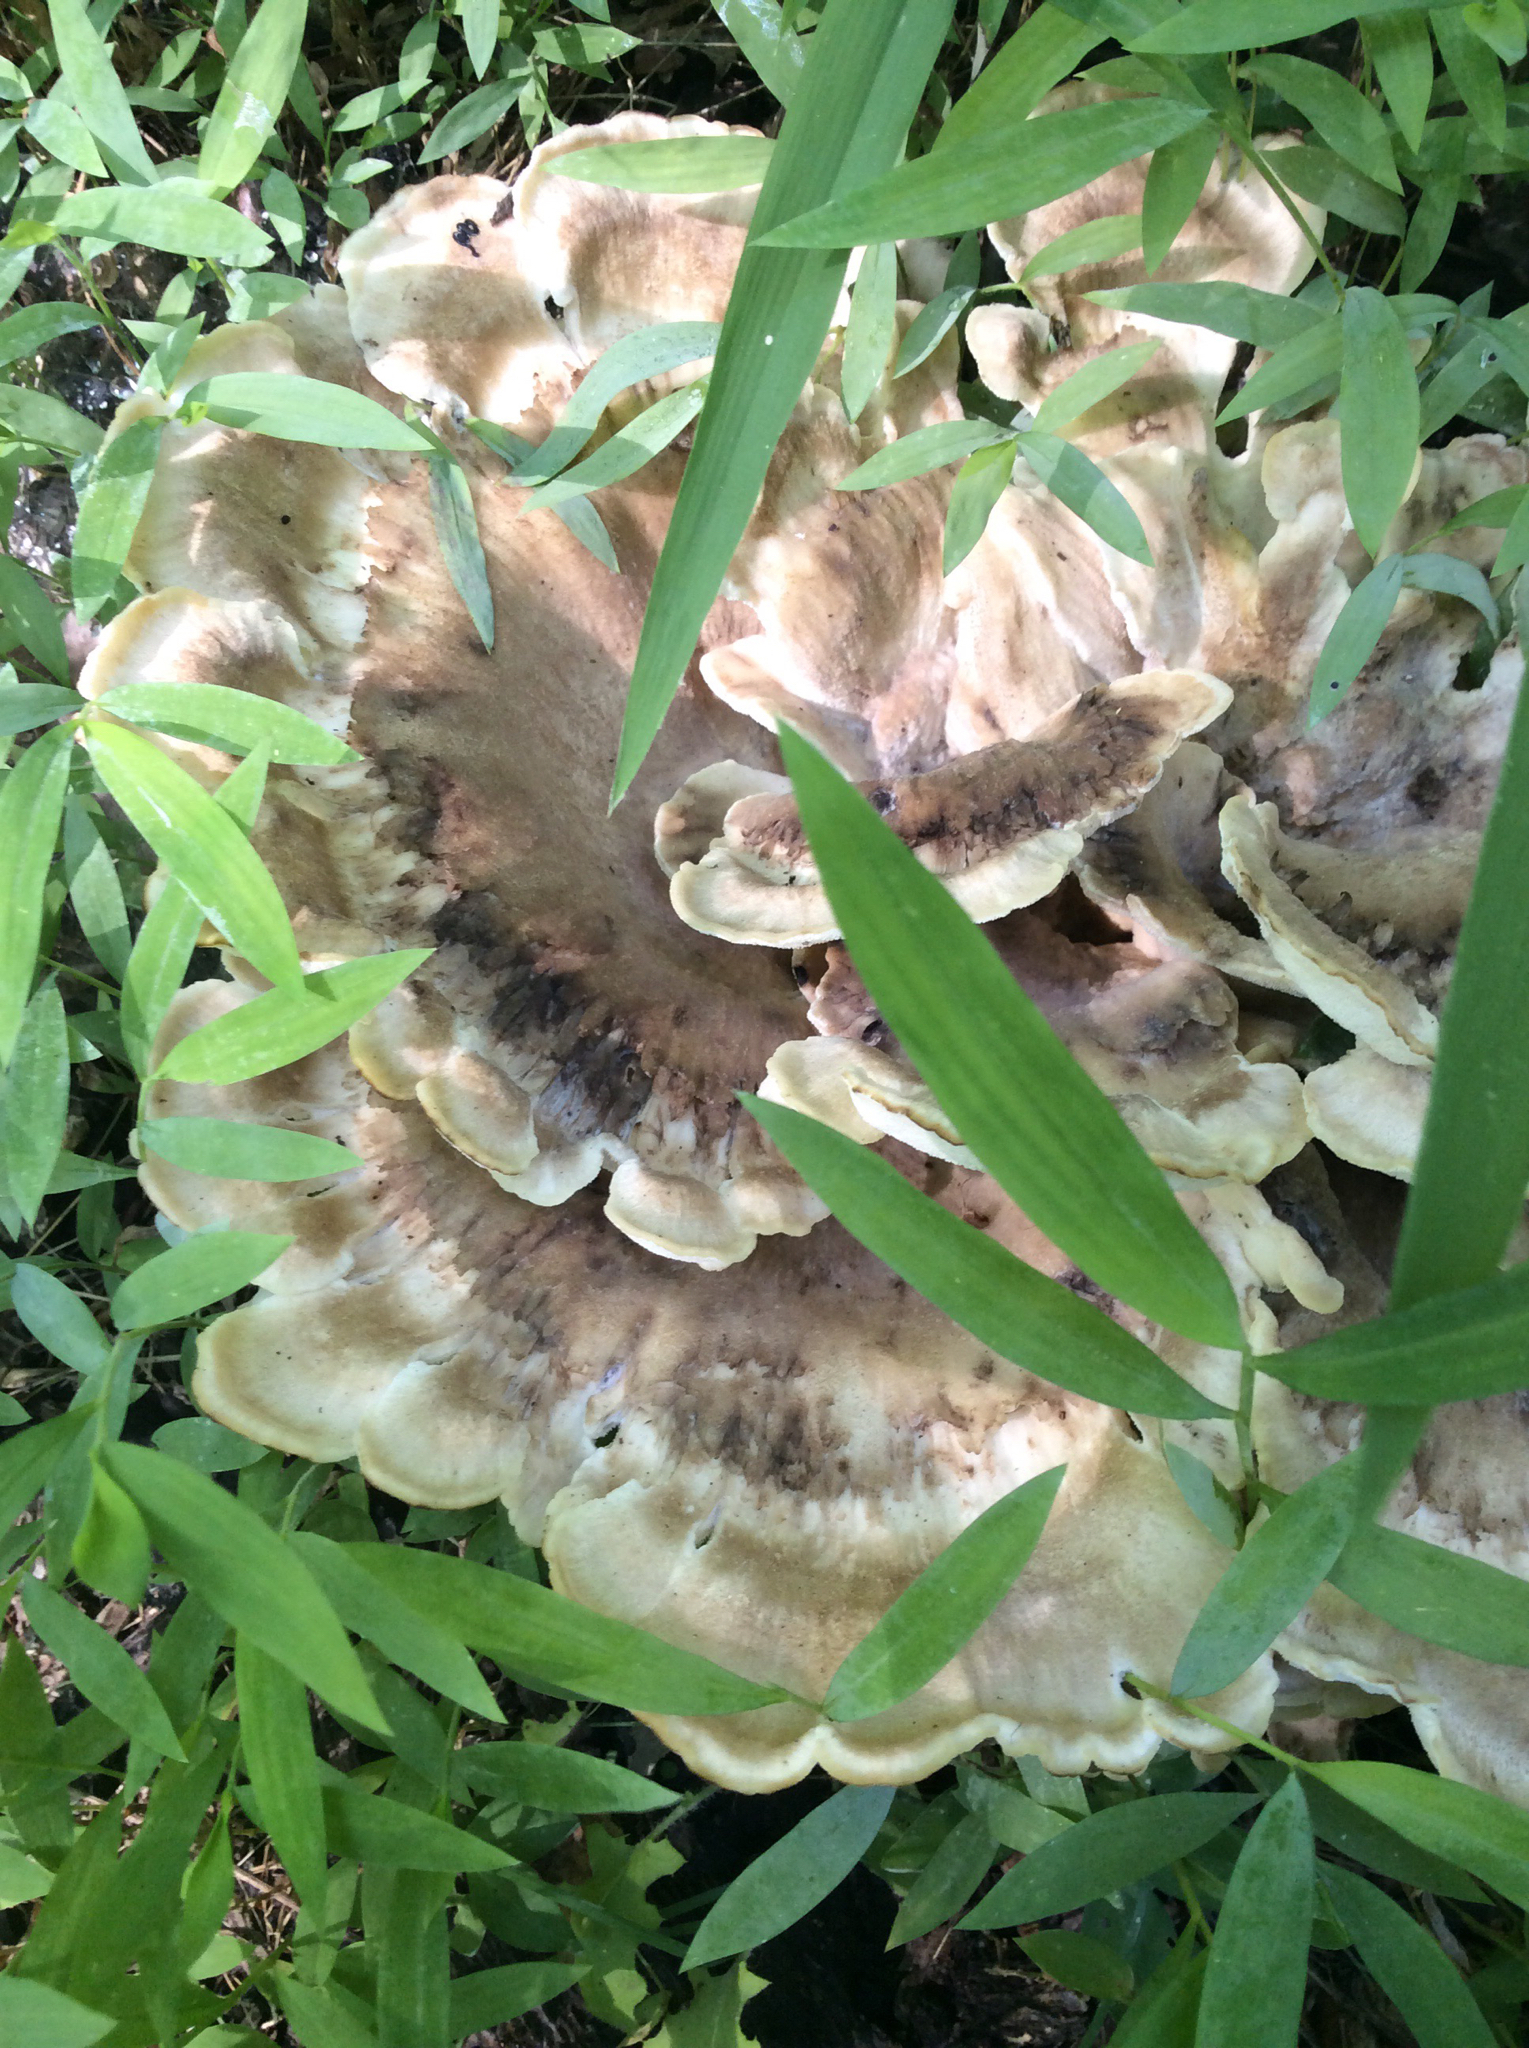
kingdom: Fungi
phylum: Basidiomycota
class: Agaricomycetes
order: Polyporales
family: Meripilaceae
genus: Meripilus
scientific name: Meripilus sumstinei
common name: Black-staining polypore
